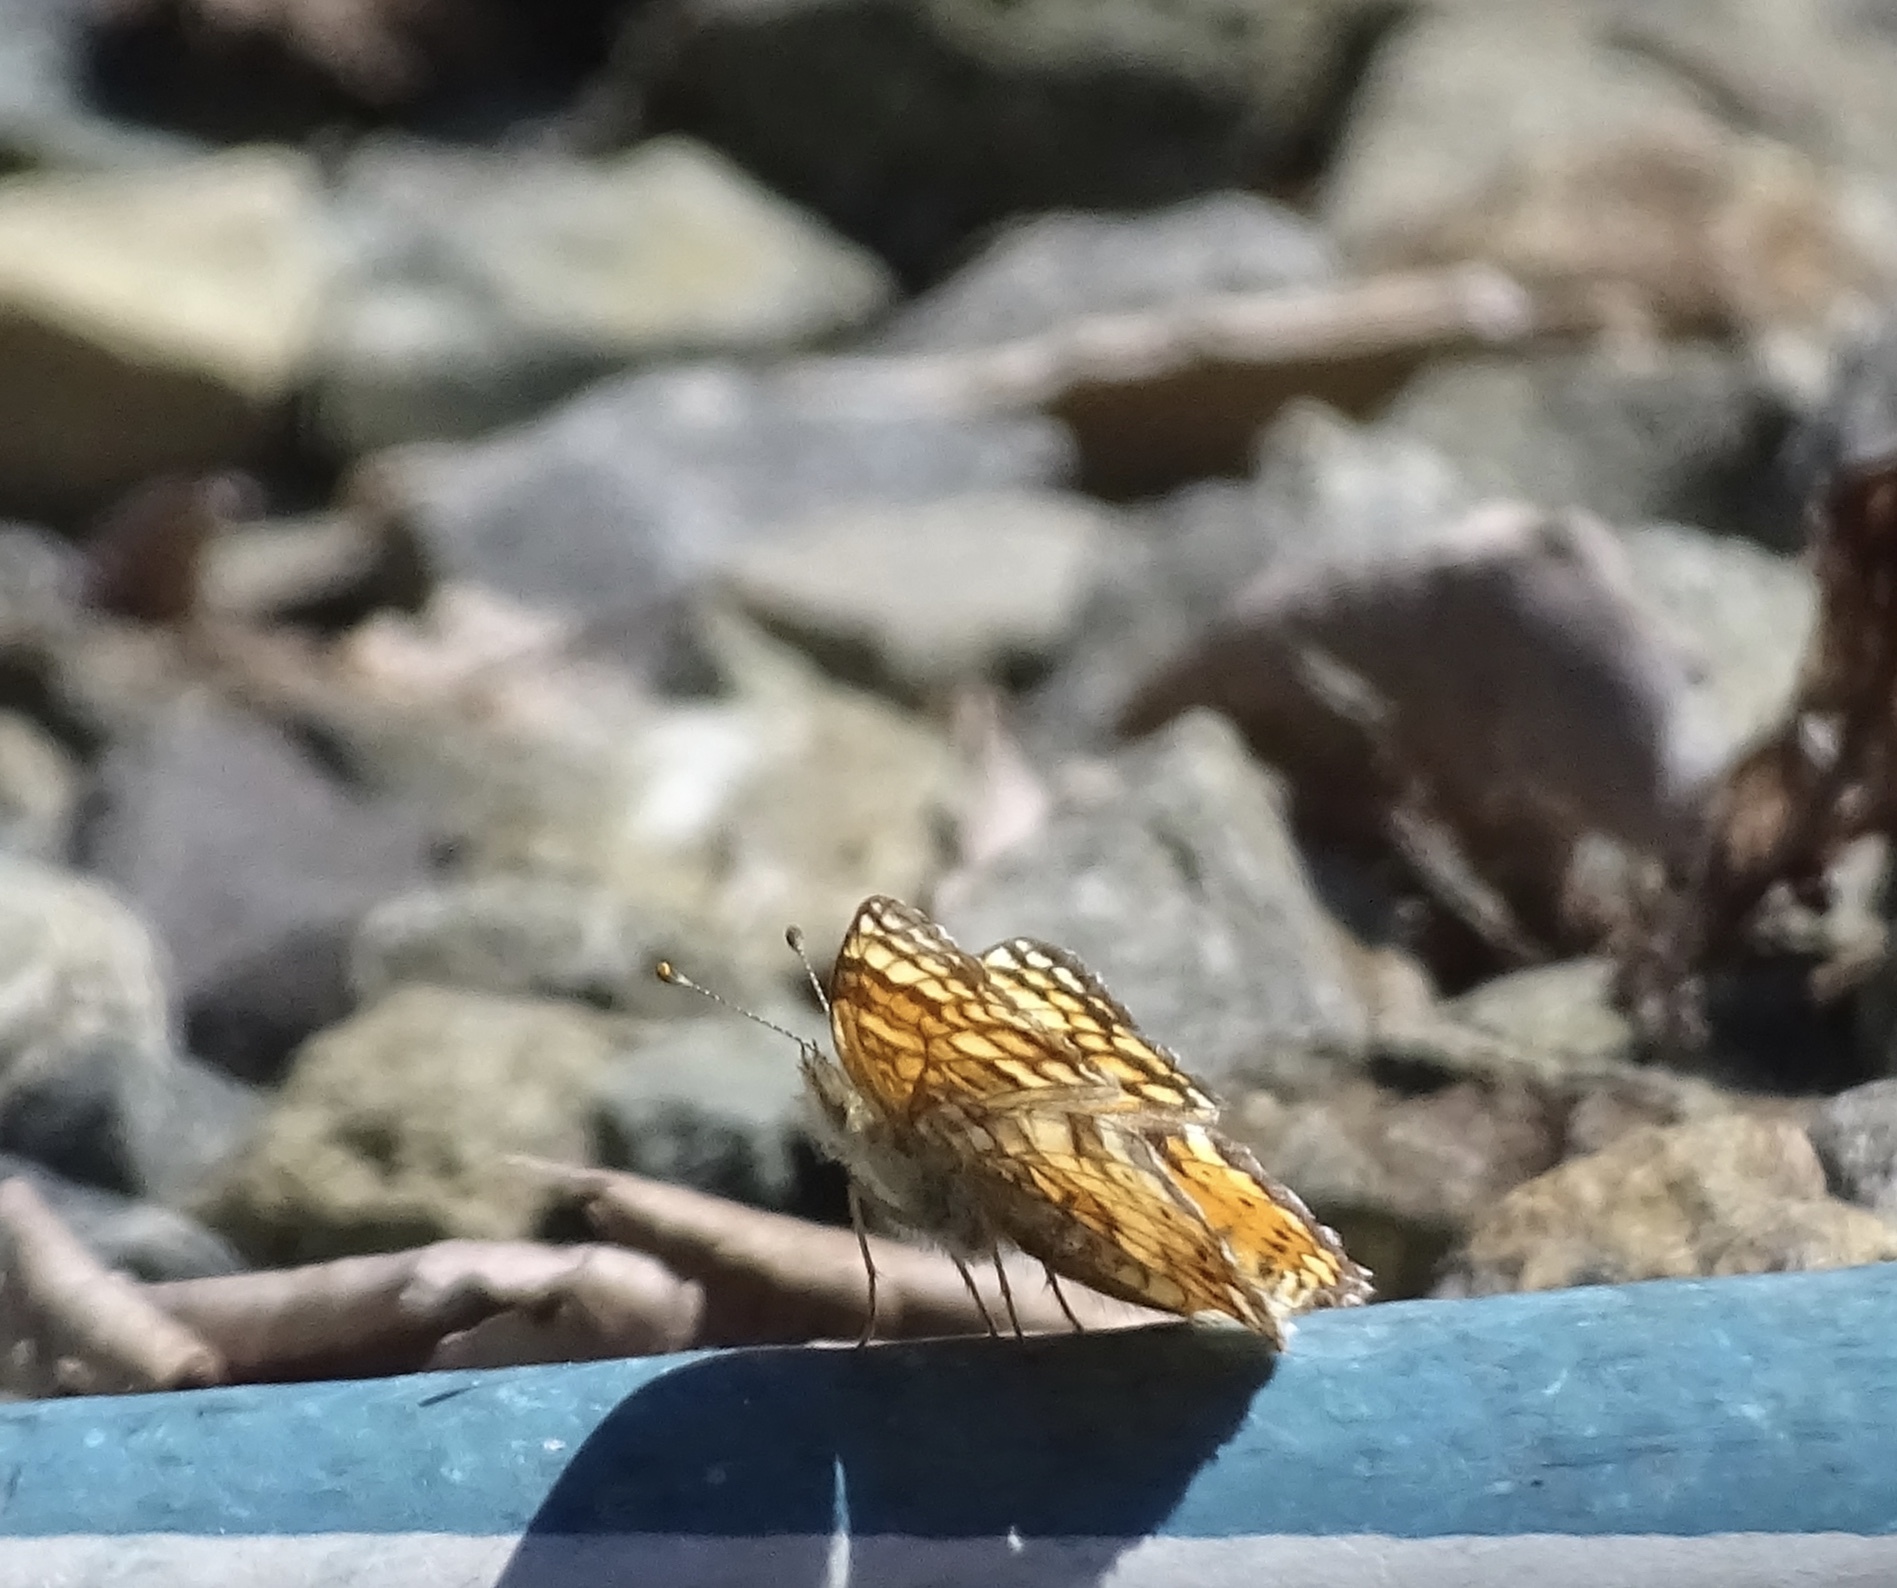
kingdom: Animalia
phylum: Arthropoda
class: Insecta
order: Lepidoptera
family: Nymphalidae
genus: Eresia
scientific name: Eresia aveyrona
